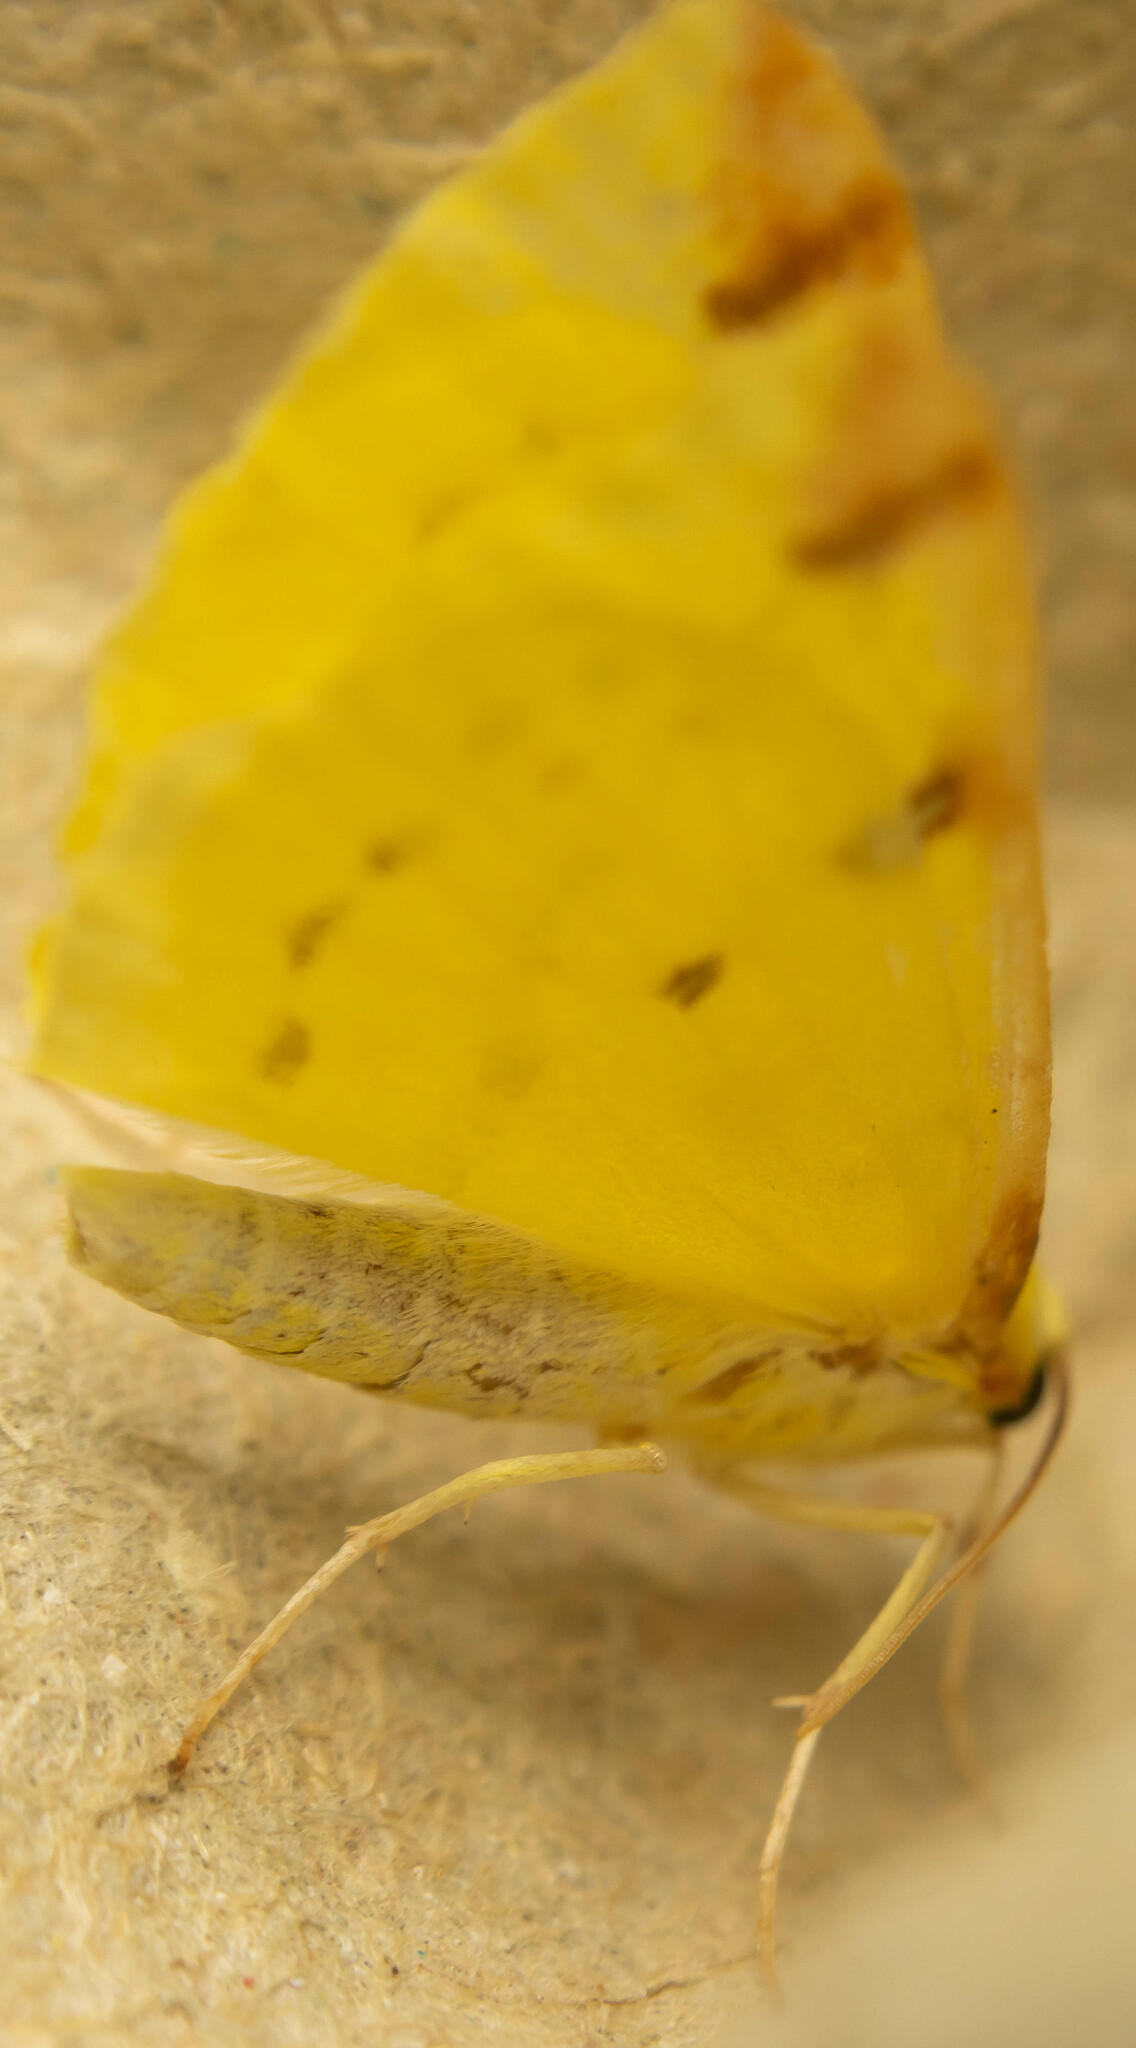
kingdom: Animalia
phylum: Arthropoda
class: Insecta
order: Lepidoptera
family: Geometridae
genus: Opisthograptis
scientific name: Opisthograptis luteolata
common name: Brimstone moth
